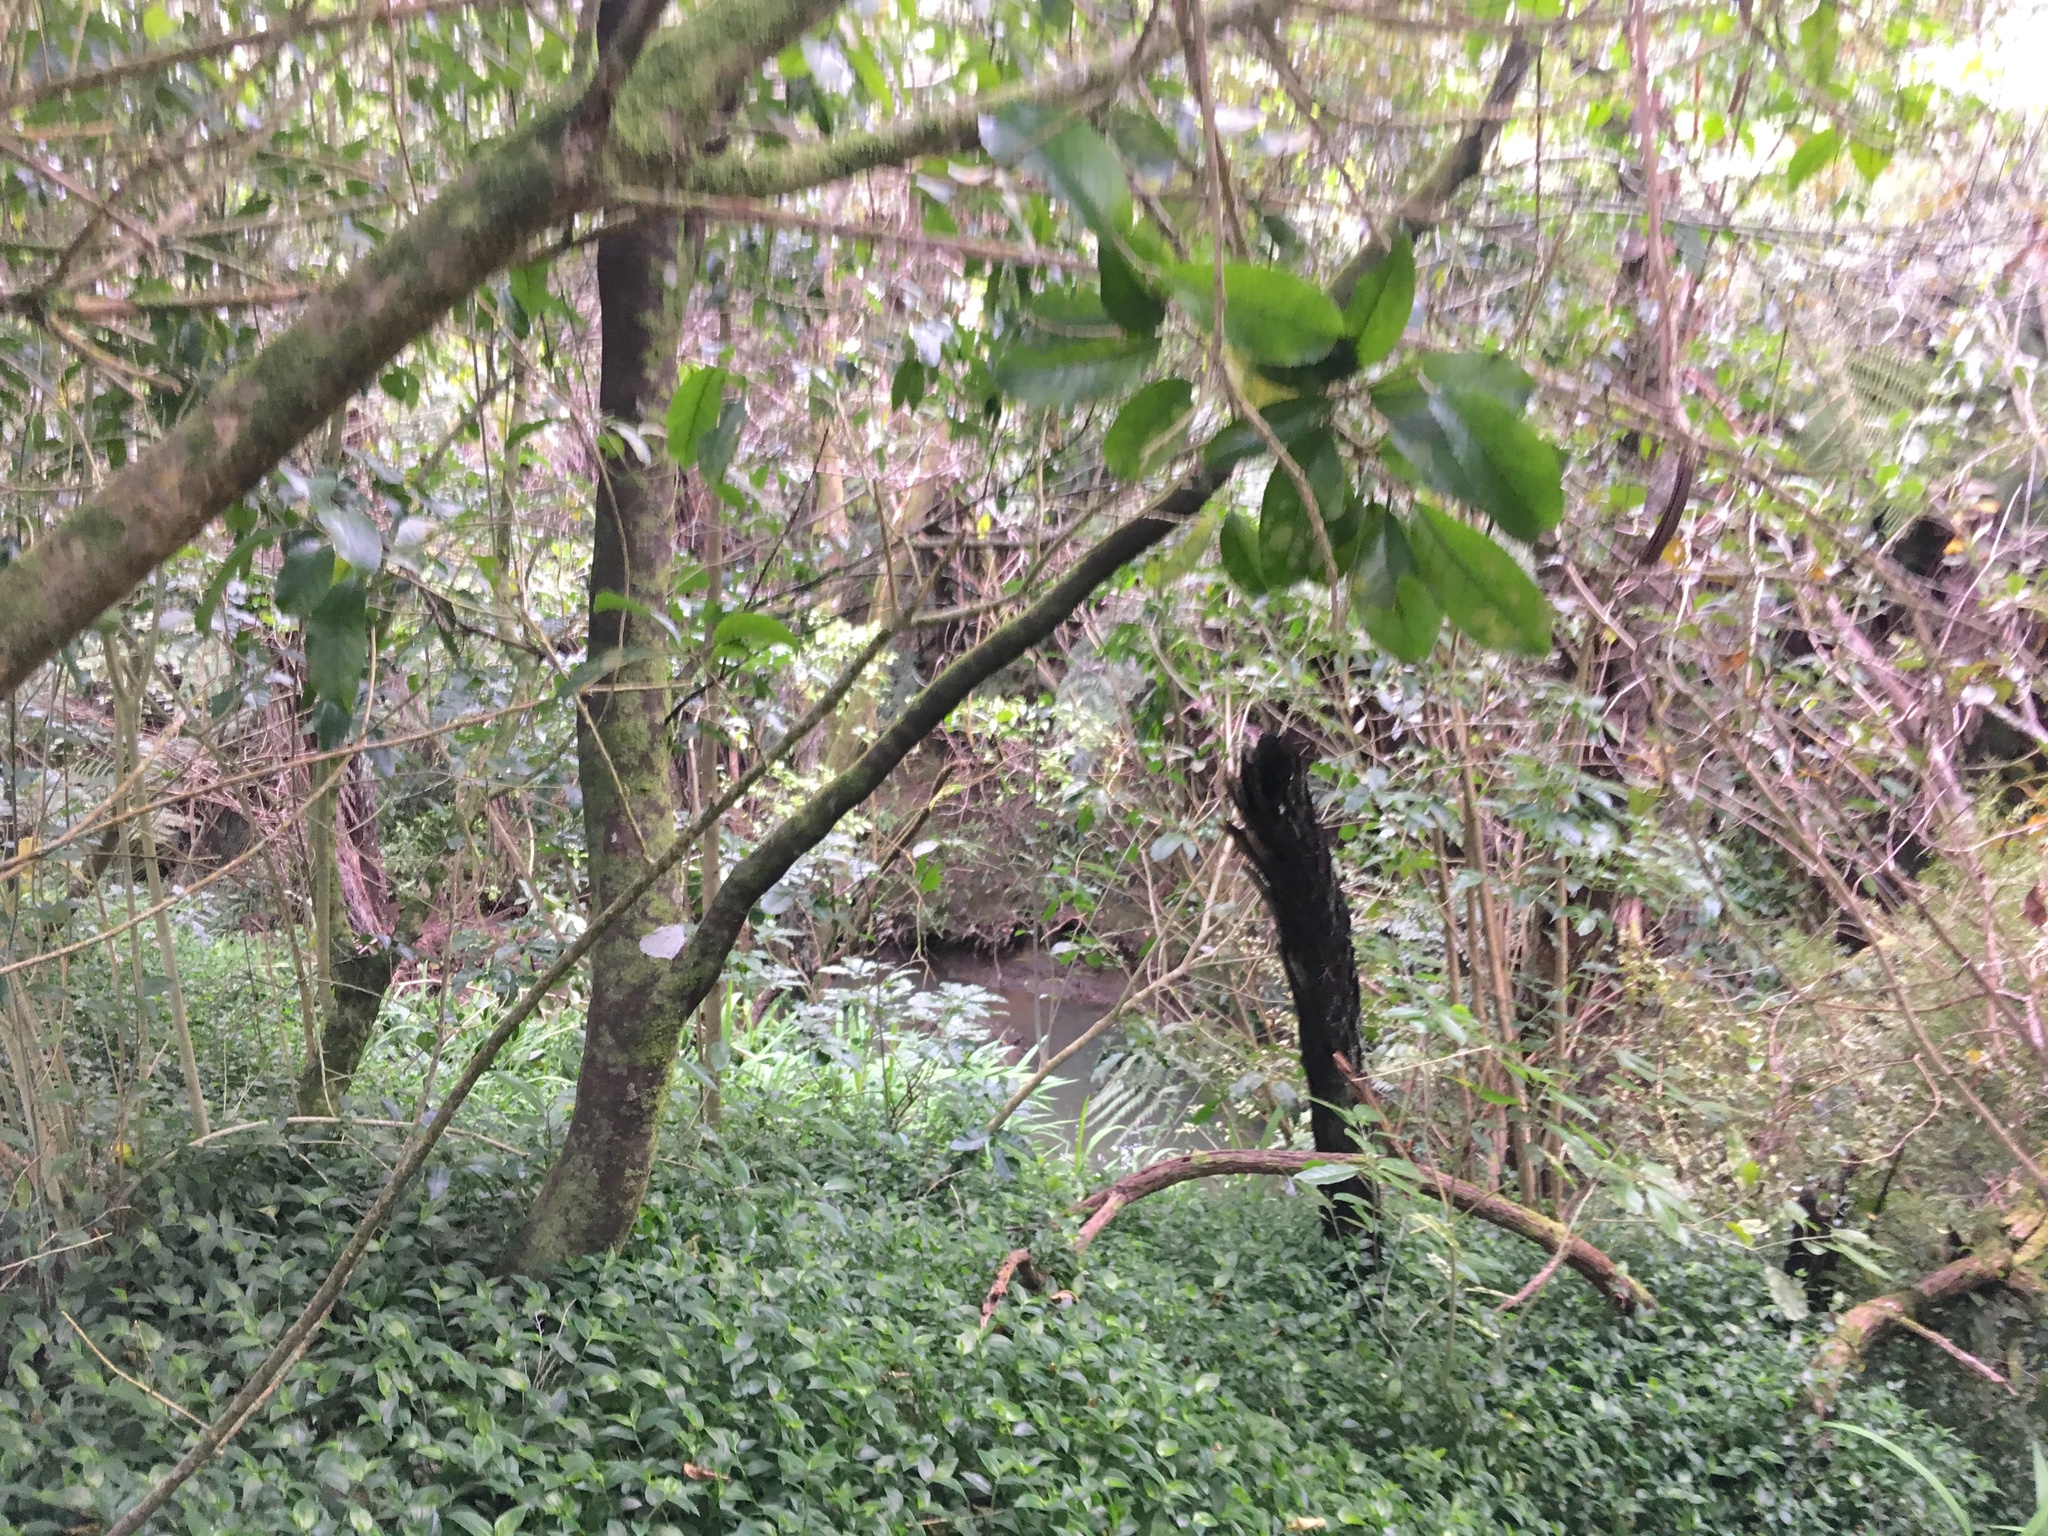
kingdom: Plantae
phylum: Tracheophyta
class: Magnoliopsida
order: Malpighiales
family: Violaceae
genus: Melicytus
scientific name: Melicytus ramiflorus
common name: Mahoe
